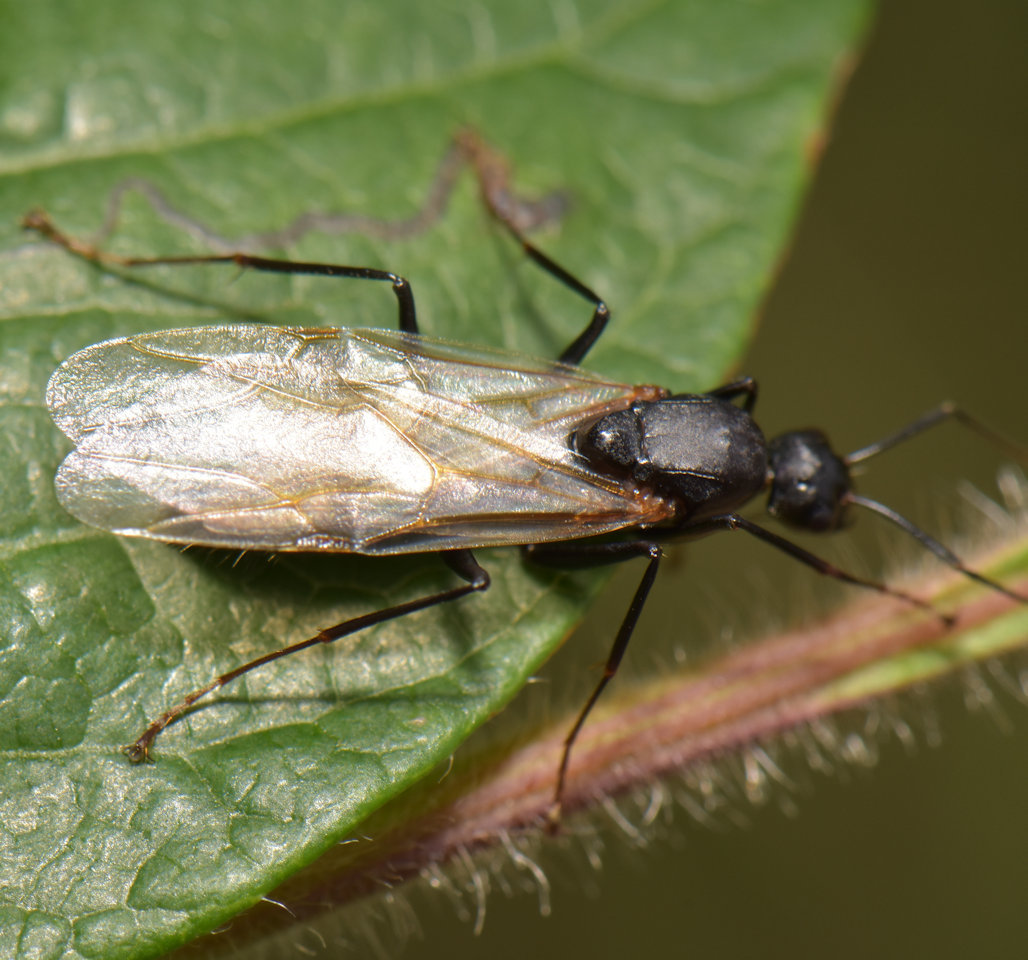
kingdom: Animalia
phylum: Arthropoda
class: Insecta
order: Hymenoptera
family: Formicidae
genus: Camponotus
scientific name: Camponotus pennsylvanicus
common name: Black carpenter ant
